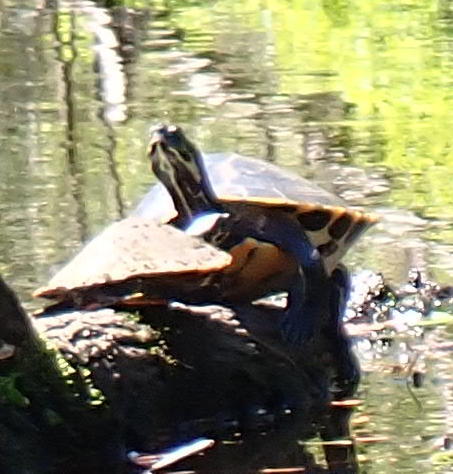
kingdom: Animalia
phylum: Chordata
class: Testudines
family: Emydidae
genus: Pseudemys
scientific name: Pseudemys concinna
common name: Eastern river cooter
